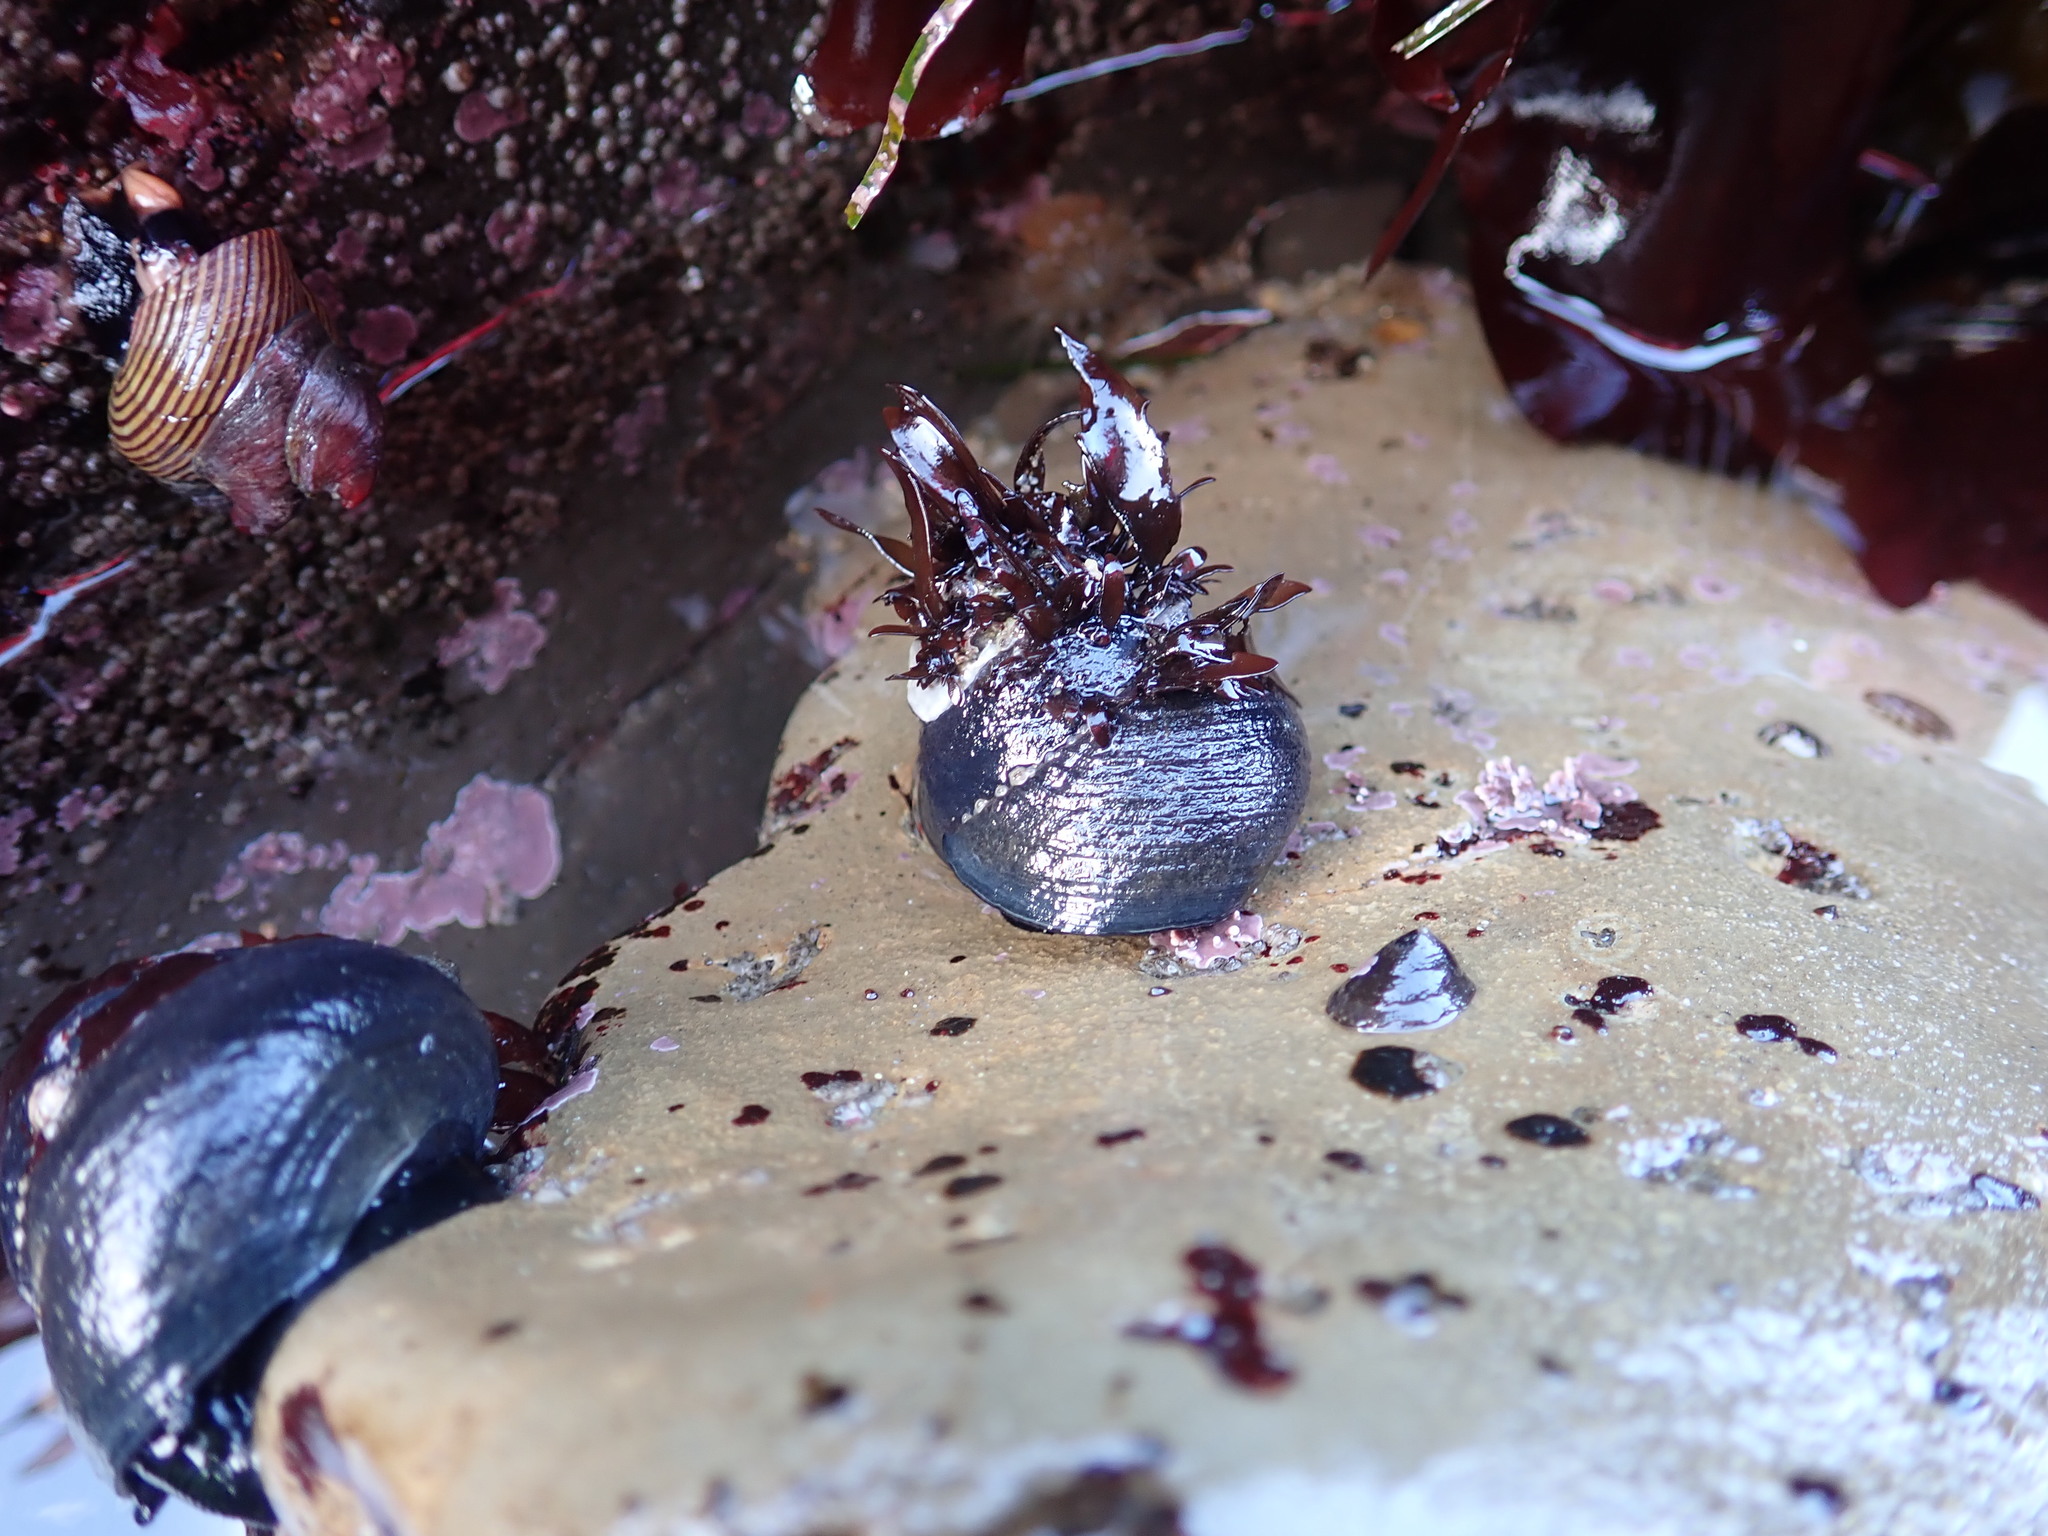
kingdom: Animalia
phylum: Mollusca
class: Gastropoda
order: Trochida
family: Tegulidae
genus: Tegula
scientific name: Tegula funebralis
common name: Black tegula
